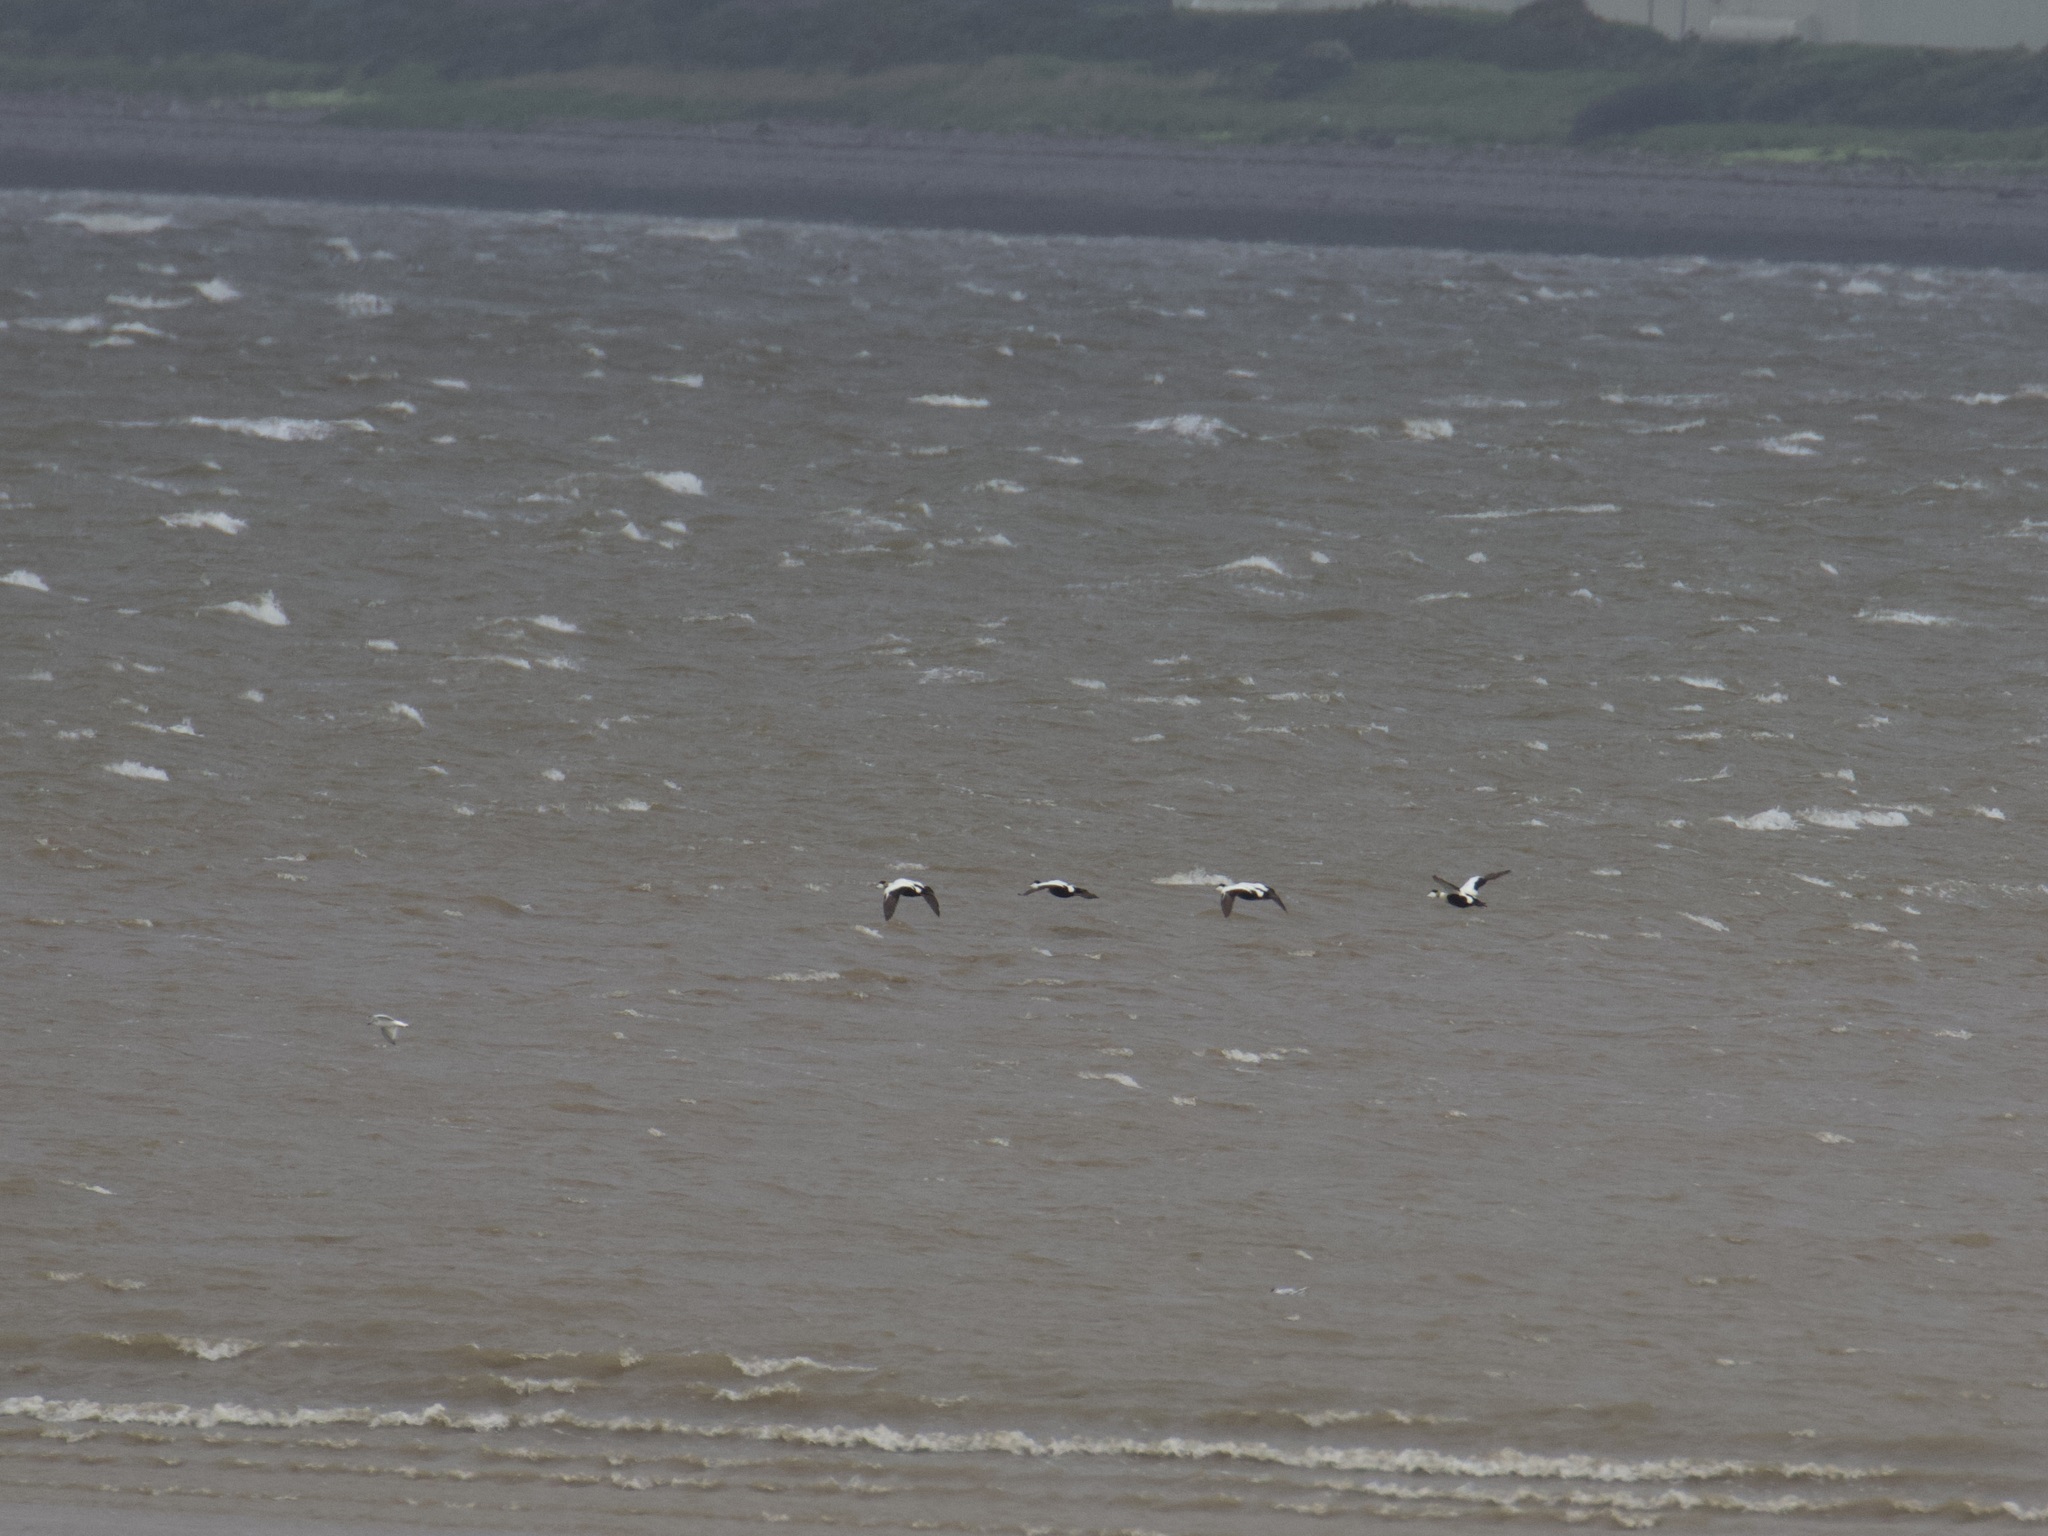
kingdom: Animalia
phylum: Chordata
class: Aves
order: Anseriformes
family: Anatidae
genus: Somateria
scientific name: Somateria mollissima
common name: Common eider
